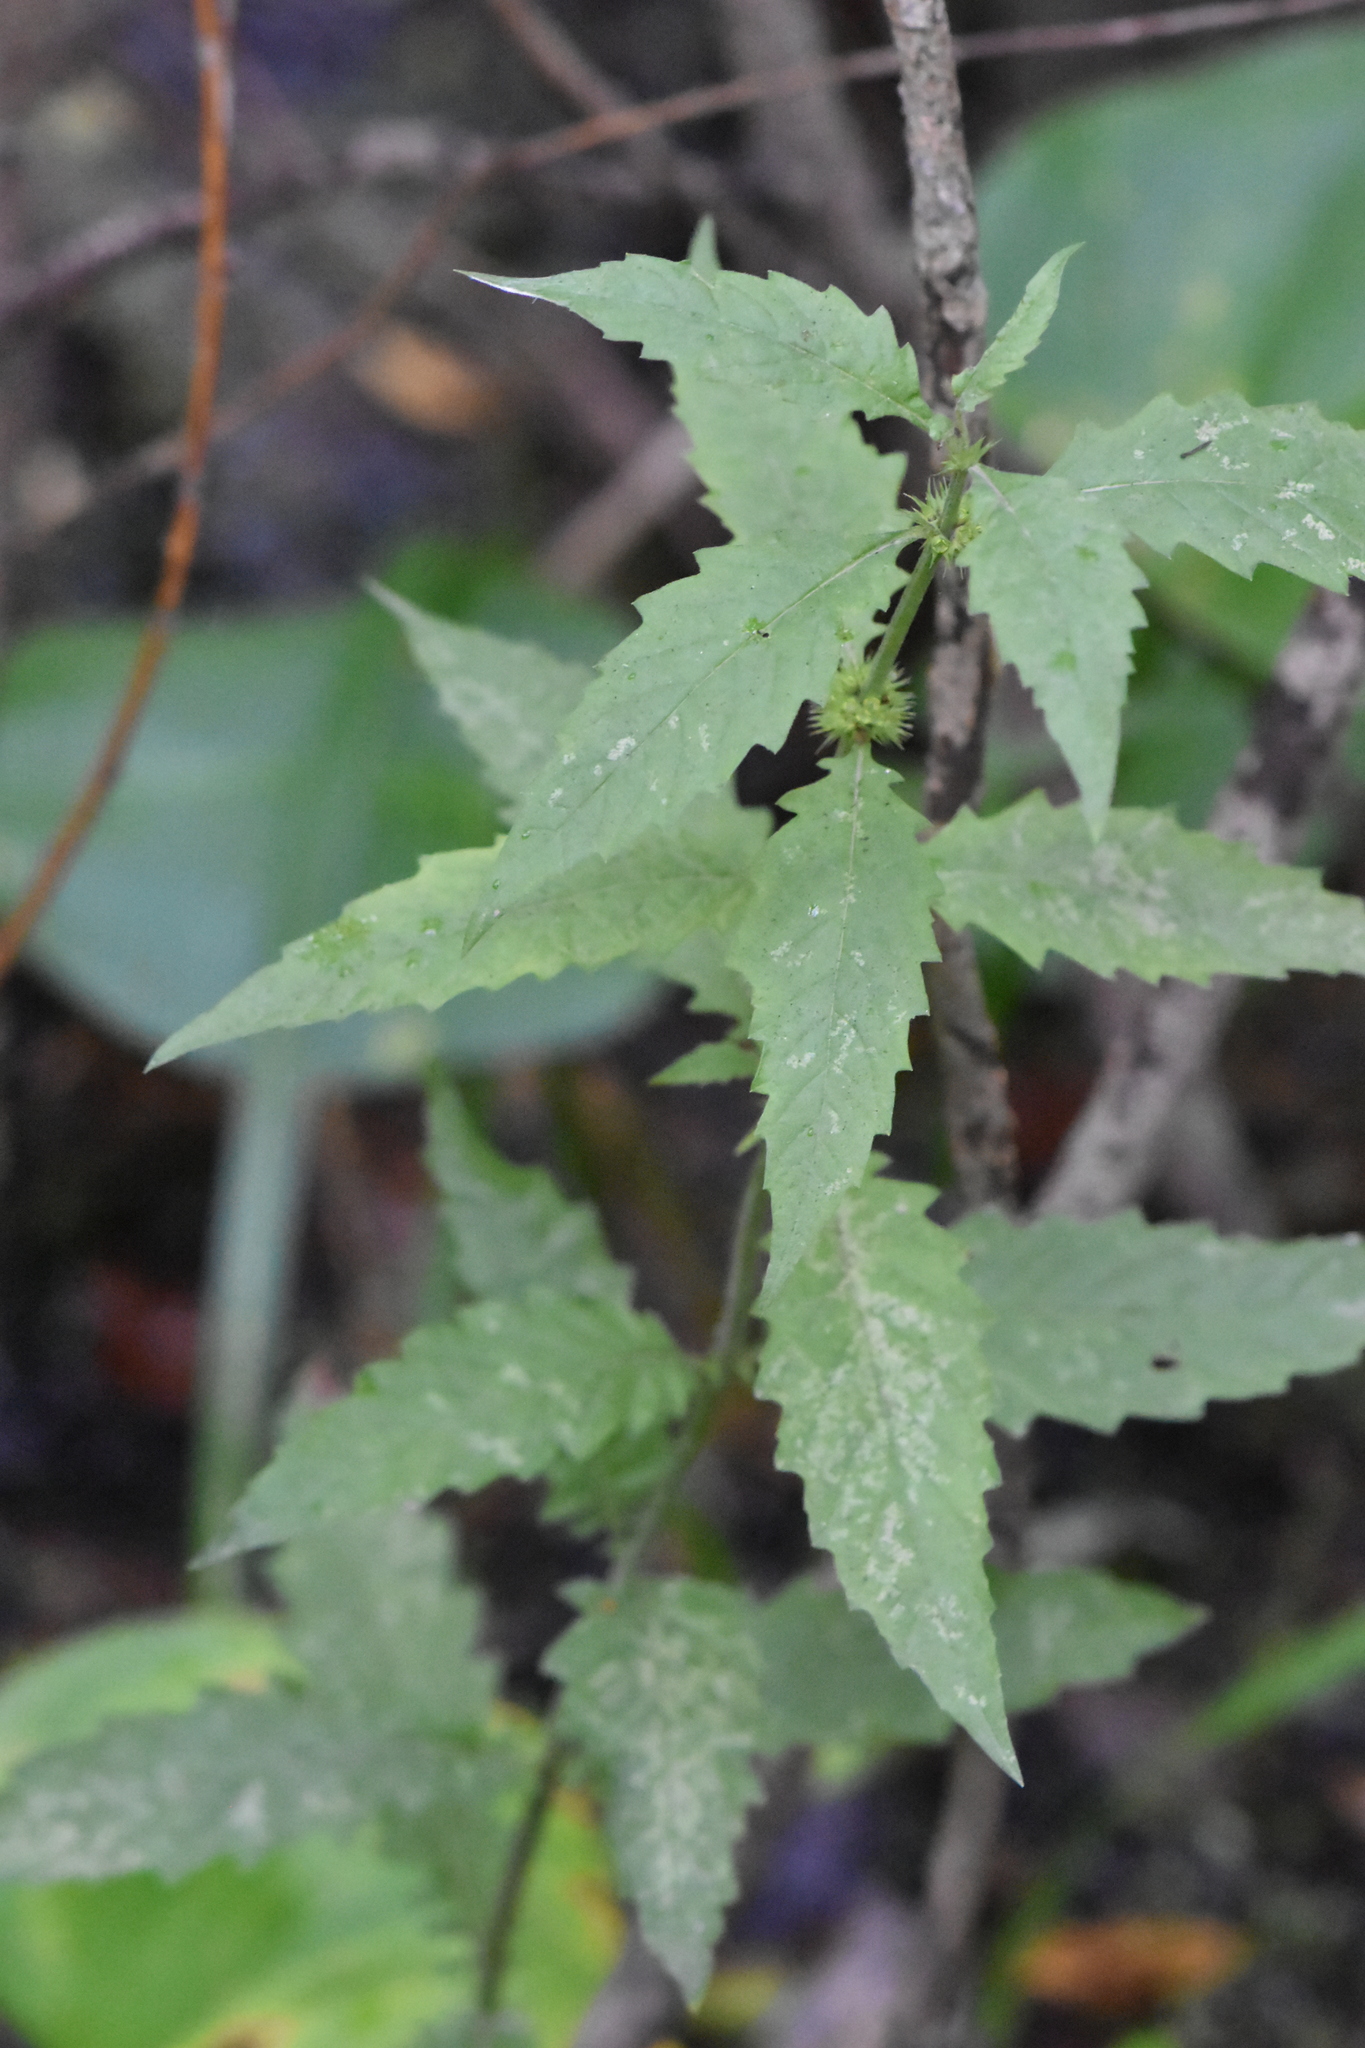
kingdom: Plantae
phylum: Tracheophyta
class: Magnoliopsida
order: Lamiales
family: Lamiaceae
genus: Lycopus
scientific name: Lycopus europaeus
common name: European bugleweed
